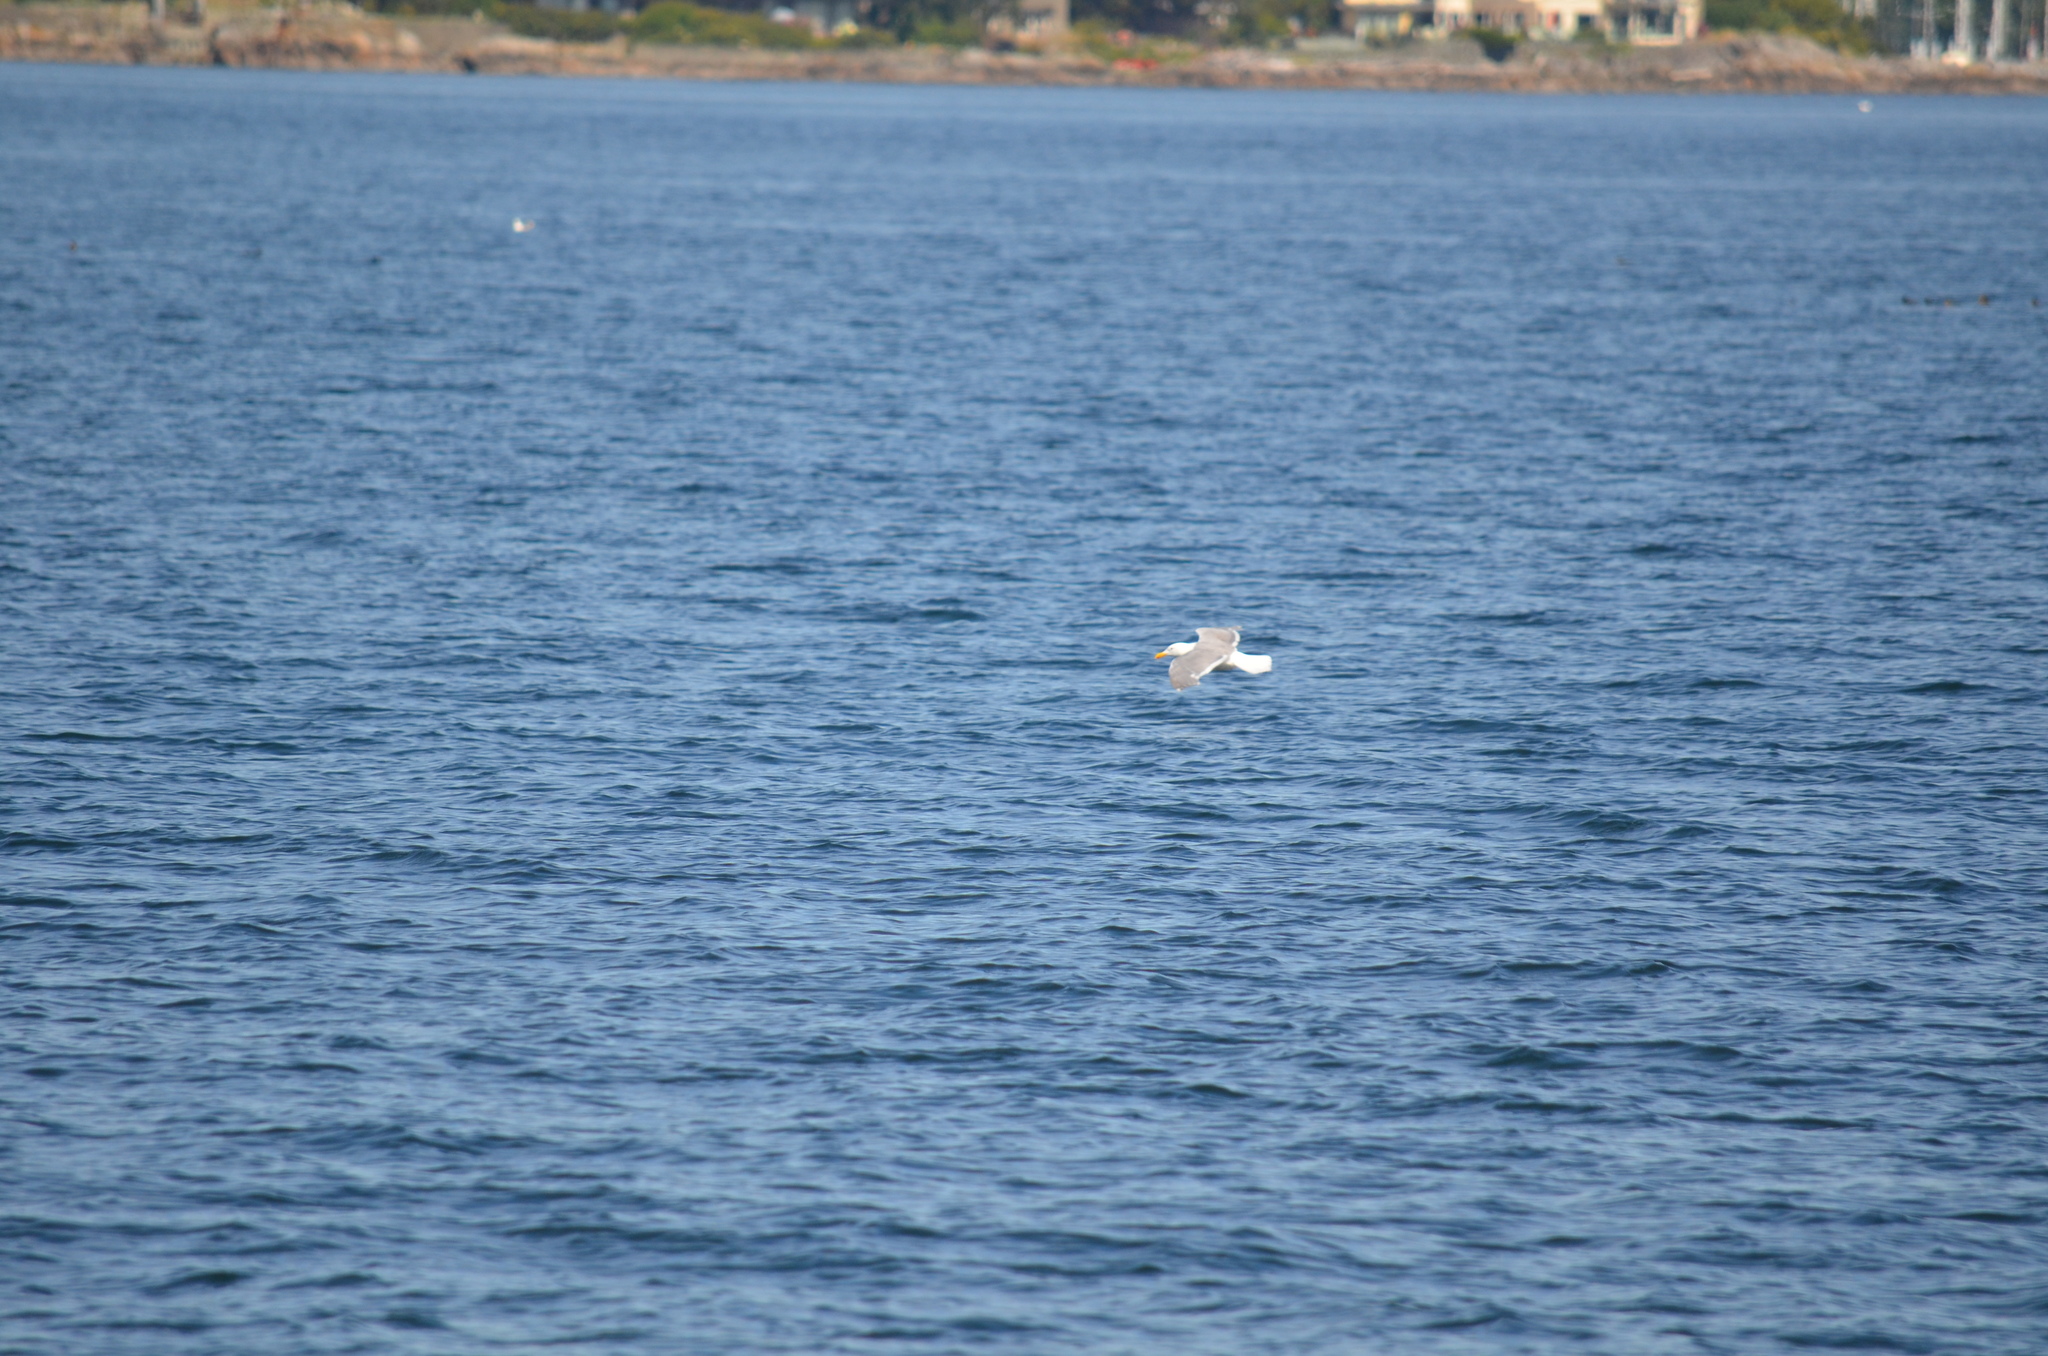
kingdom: Animalia
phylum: Chordata
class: Aves
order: Charadriiformes
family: Laridae
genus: Larus
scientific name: Larus glaucescens
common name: Glaucous-winged gull
